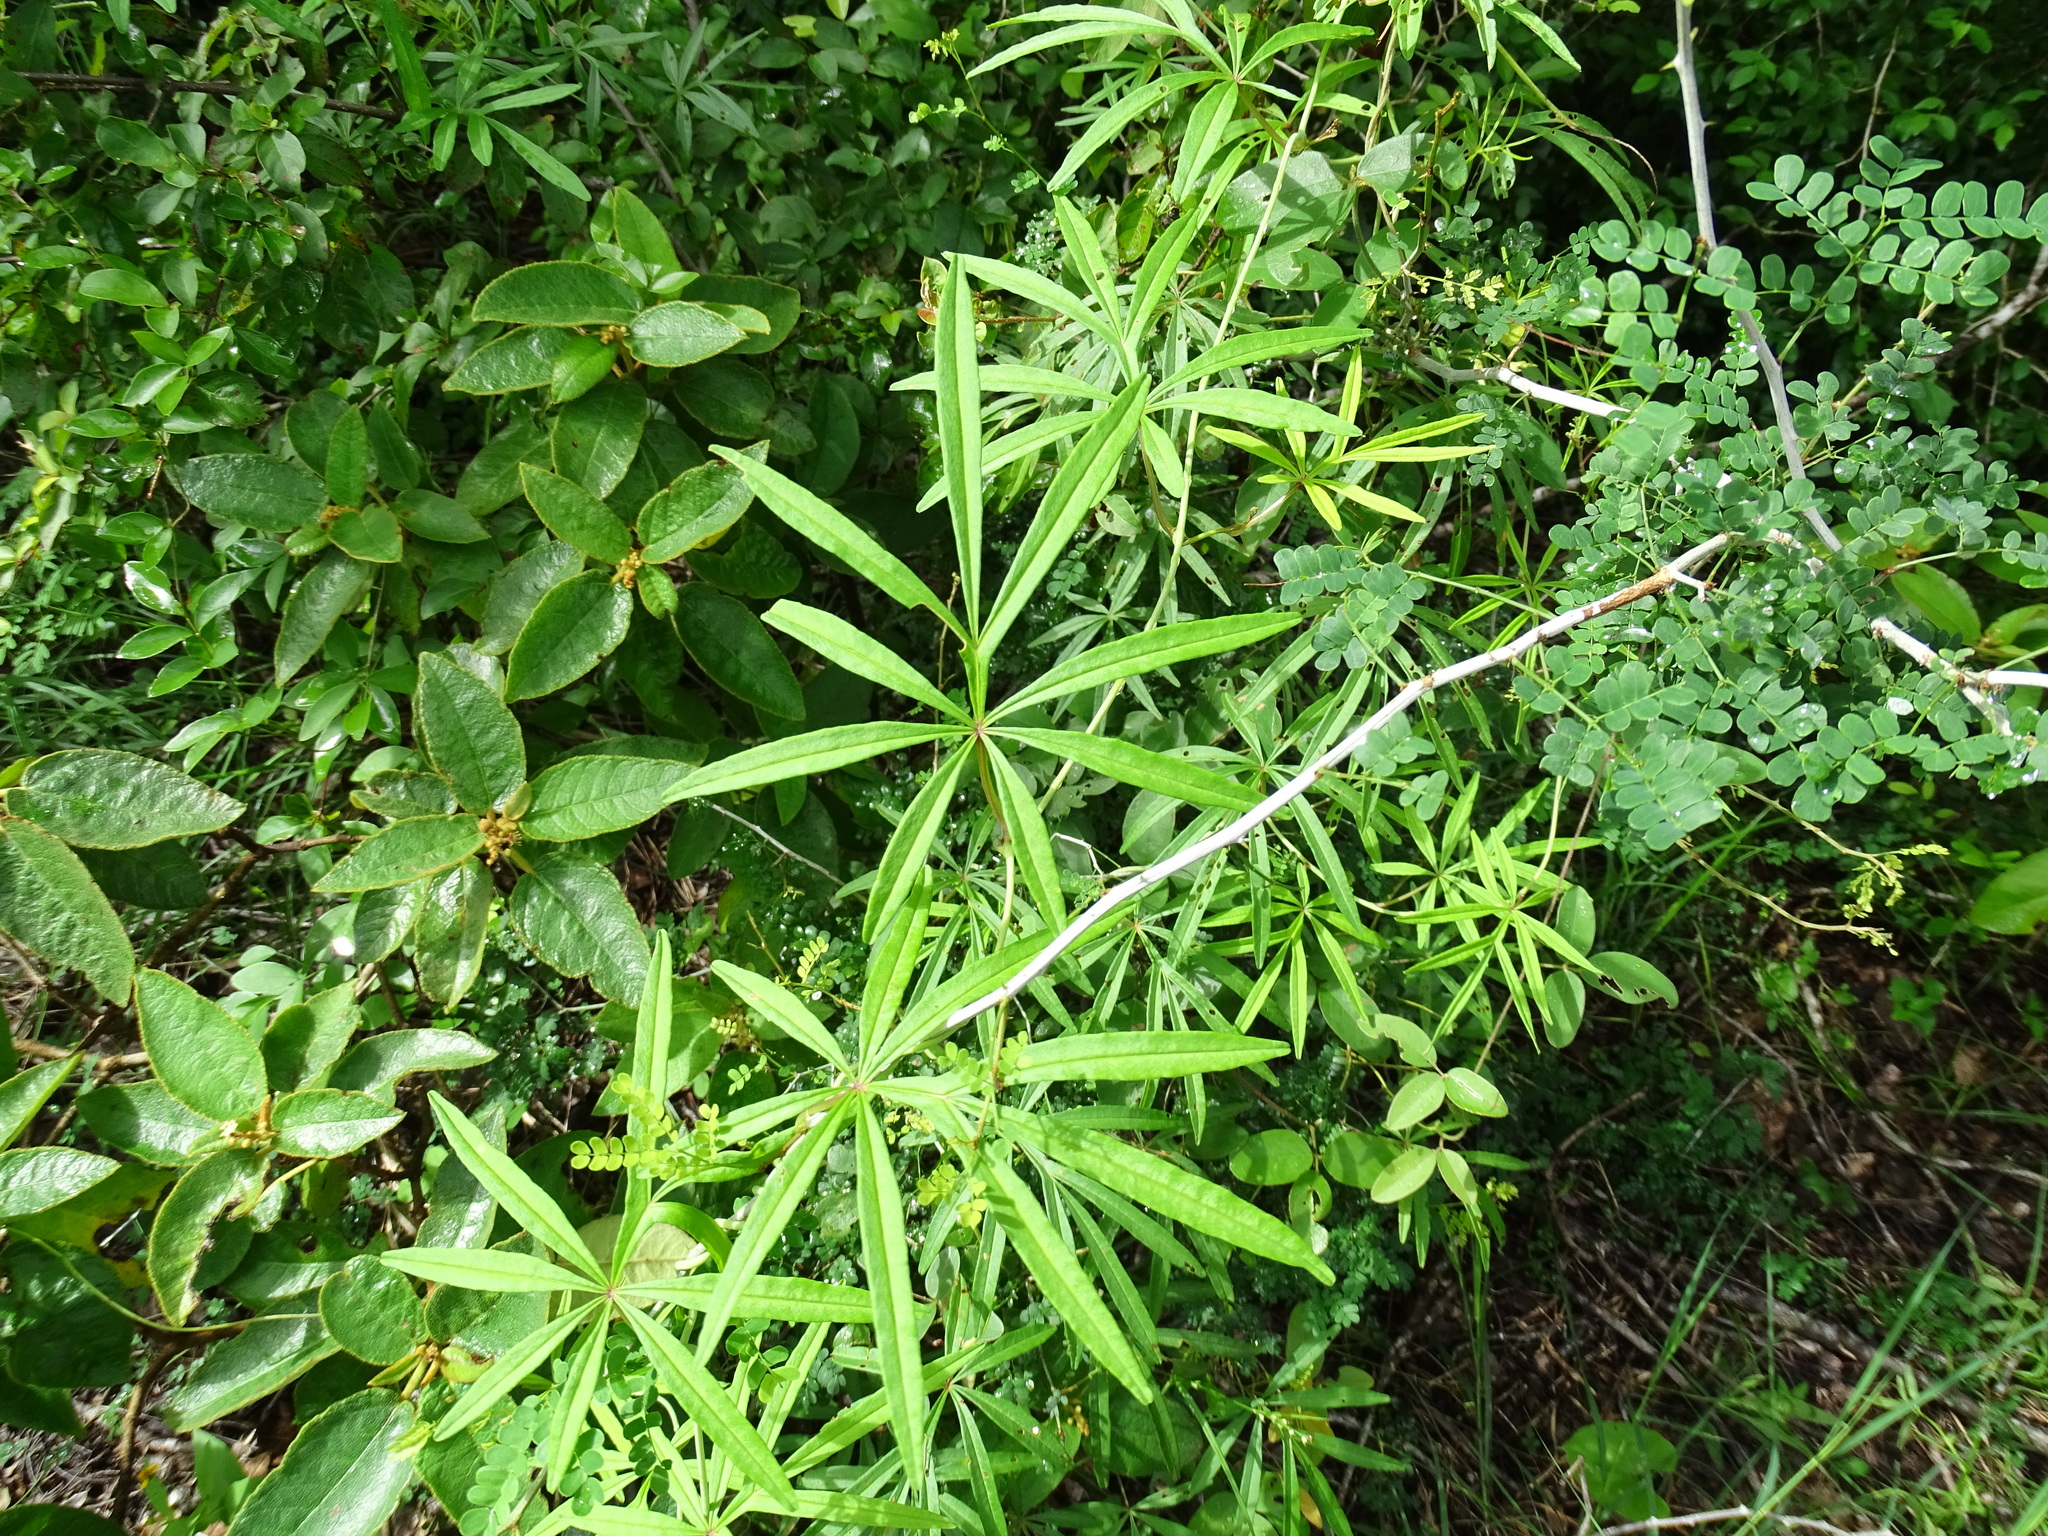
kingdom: Plantae
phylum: Tracheophyta
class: Magnoliopsida
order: Solanales
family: Convolvulaceae
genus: Ipomoea
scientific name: Ipomoea heterodoxa
